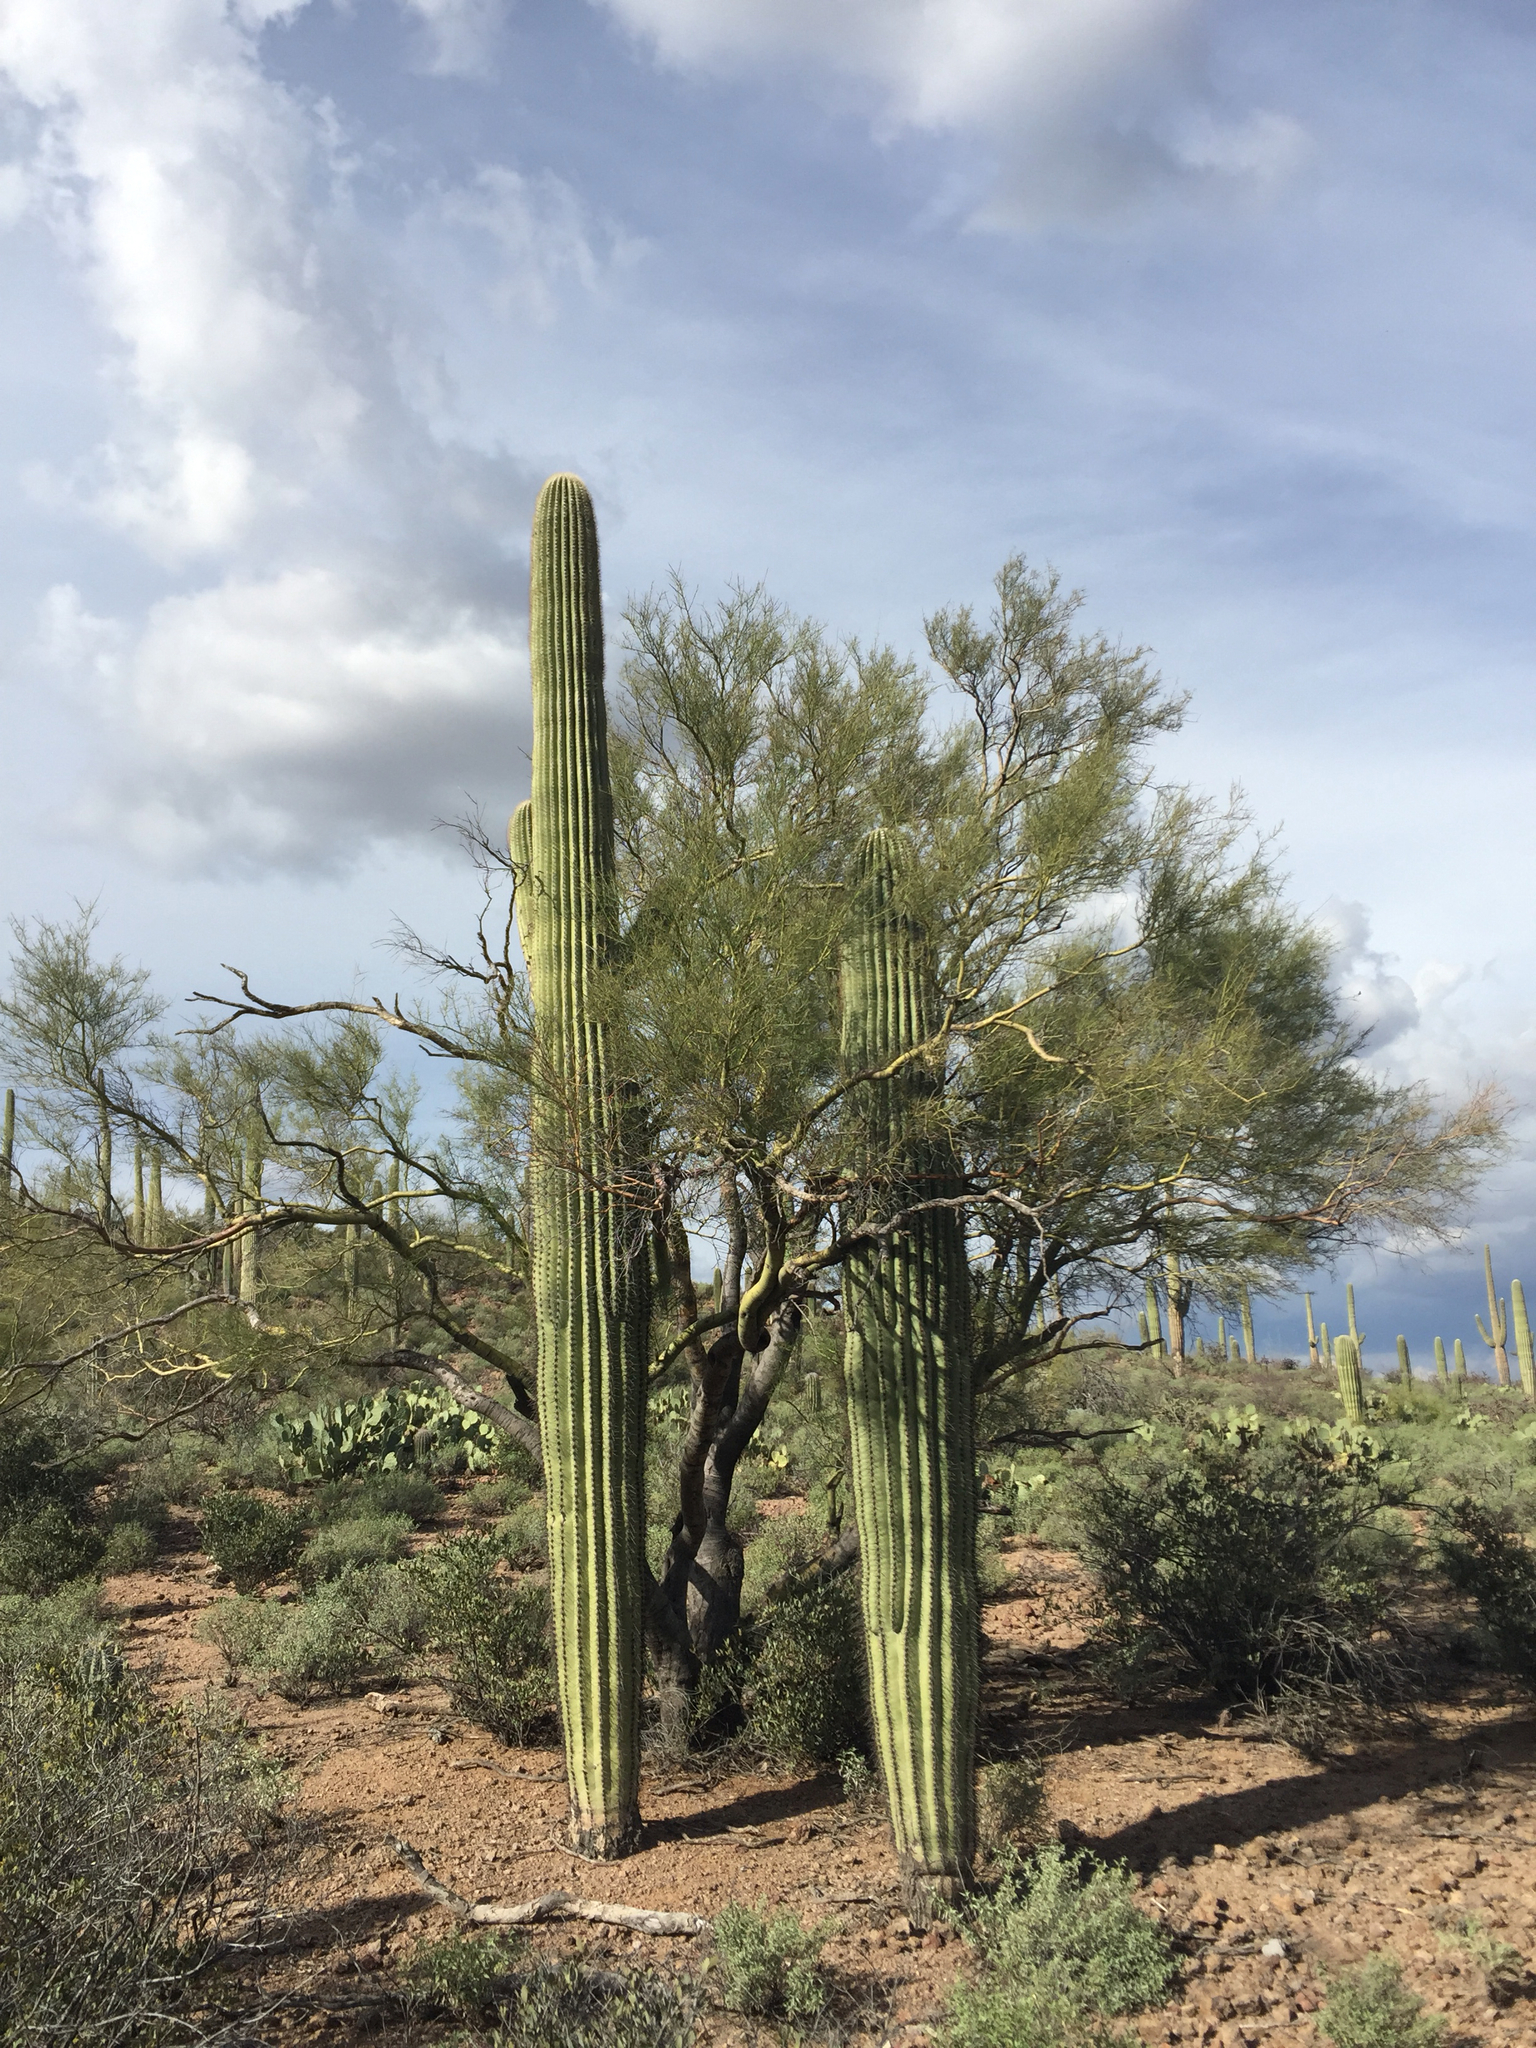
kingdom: Plantae
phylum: Tracheophyta
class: Magnoliopsida
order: Fabales
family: Fabaceae
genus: Parkinsonia
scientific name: Parkinsonia microphylla
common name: Yellow paloverde
